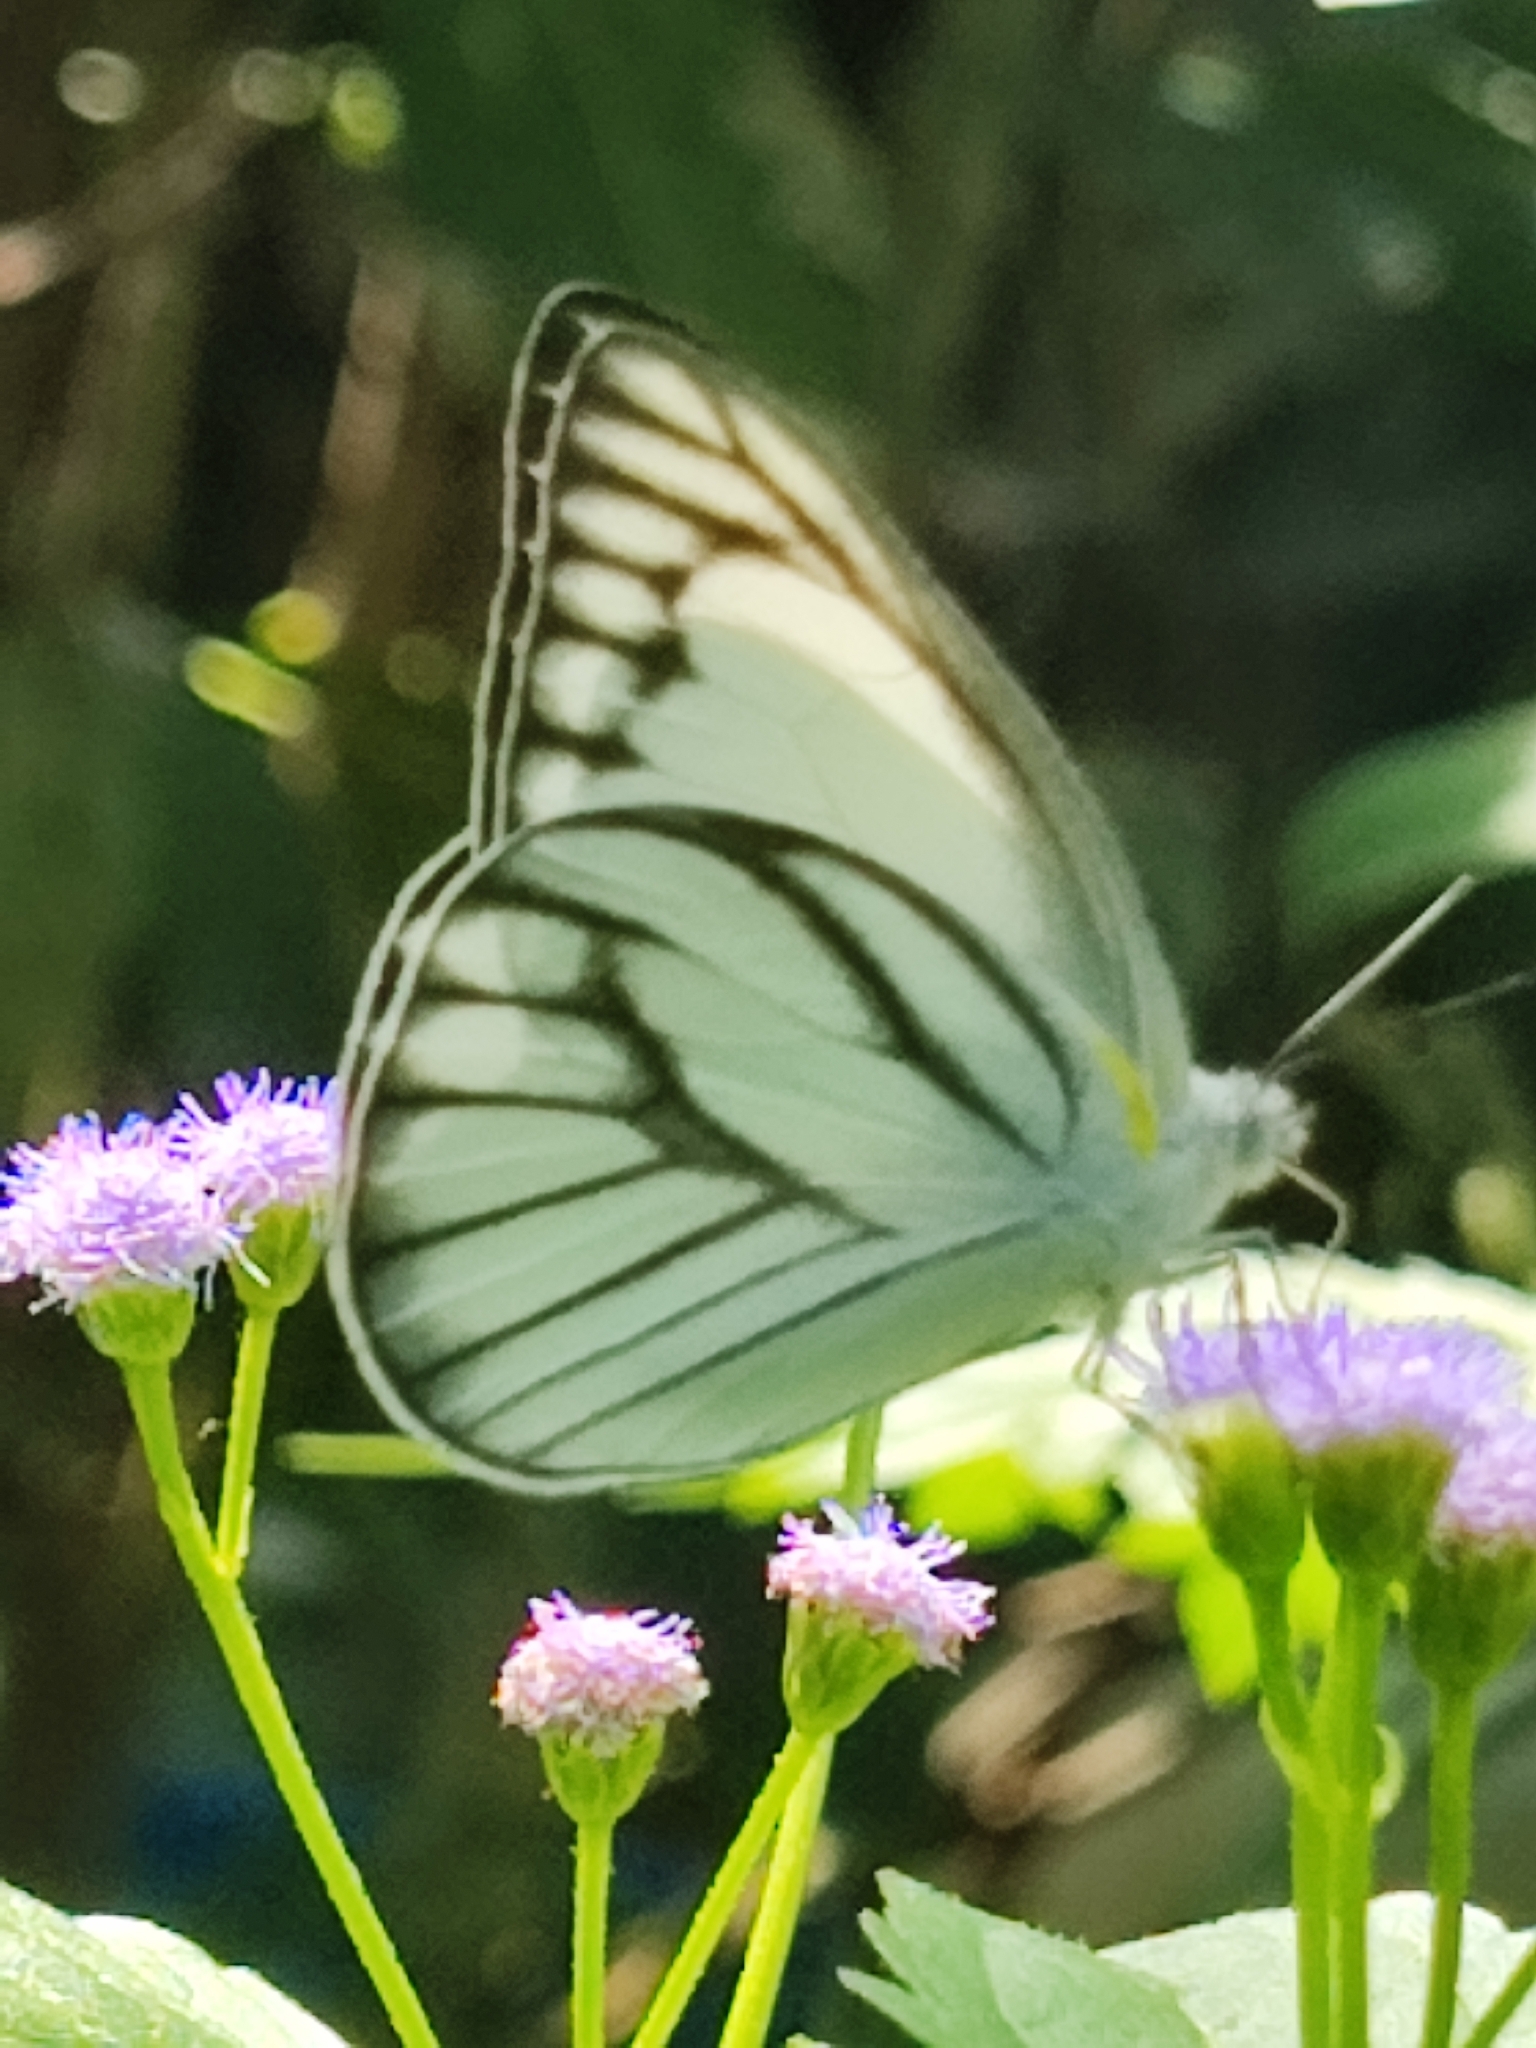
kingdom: Animalia
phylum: Arthropoda
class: Insecta
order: Lepidoptera
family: Pieridae
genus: Appias
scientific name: Appias libythea
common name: Striped albatross
